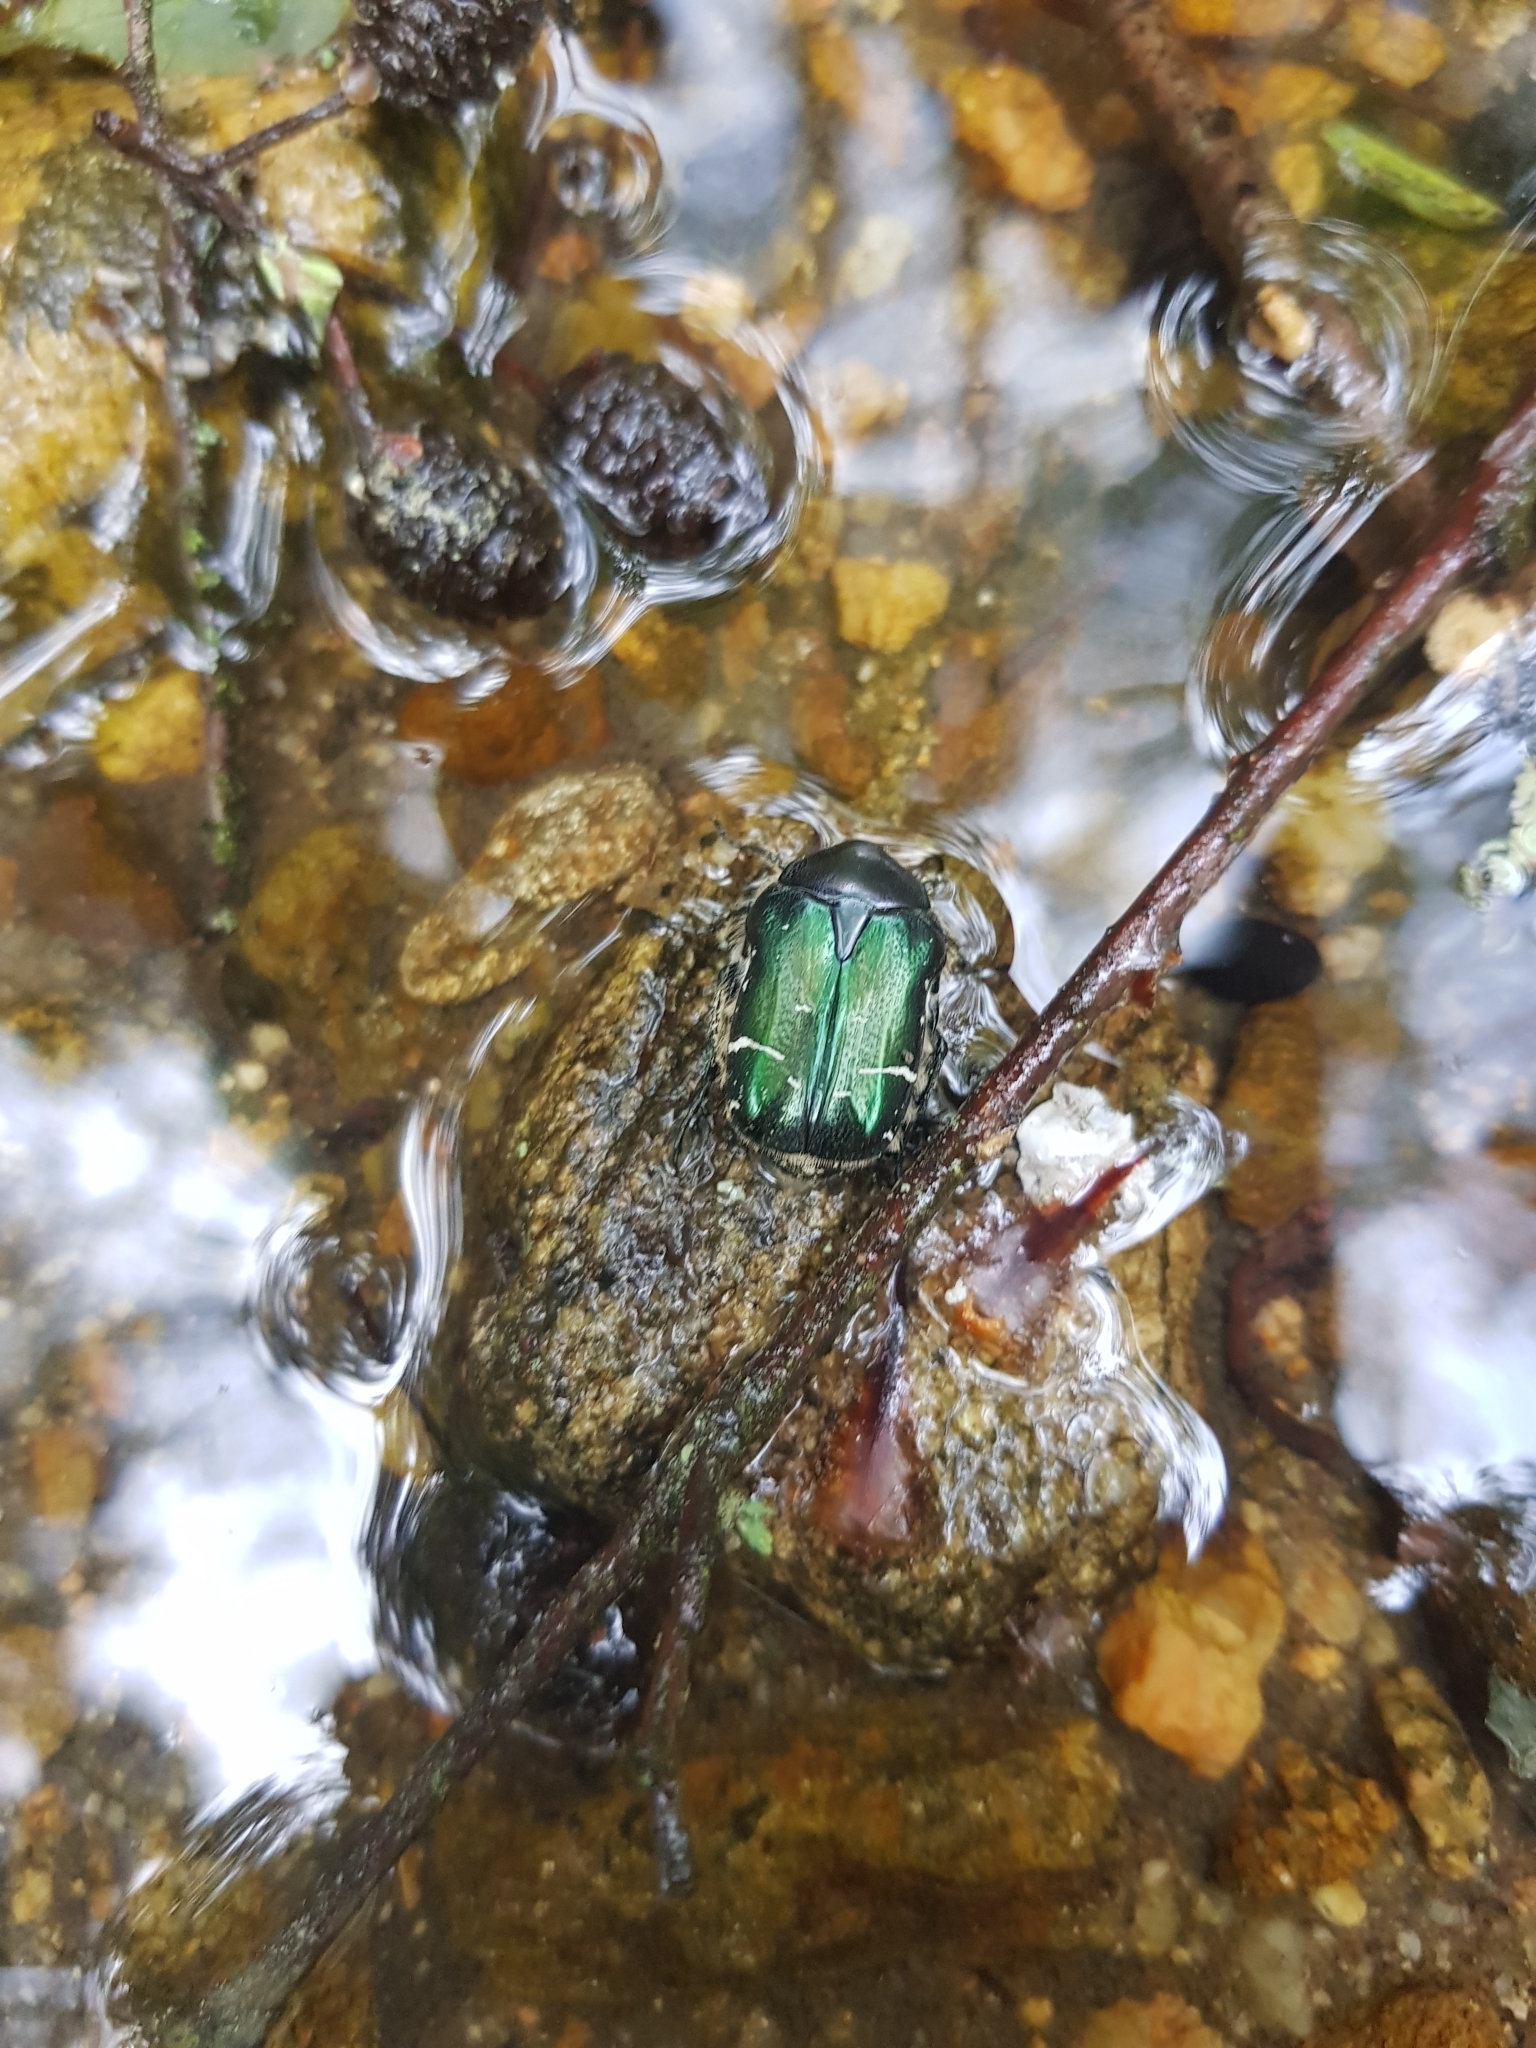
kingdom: Animalia
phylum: Arthropoda
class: Insecta
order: Coleoptera
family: Scarabaeidae
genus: Cetonia
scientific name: Cetonia aurata
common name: Rose chafer
